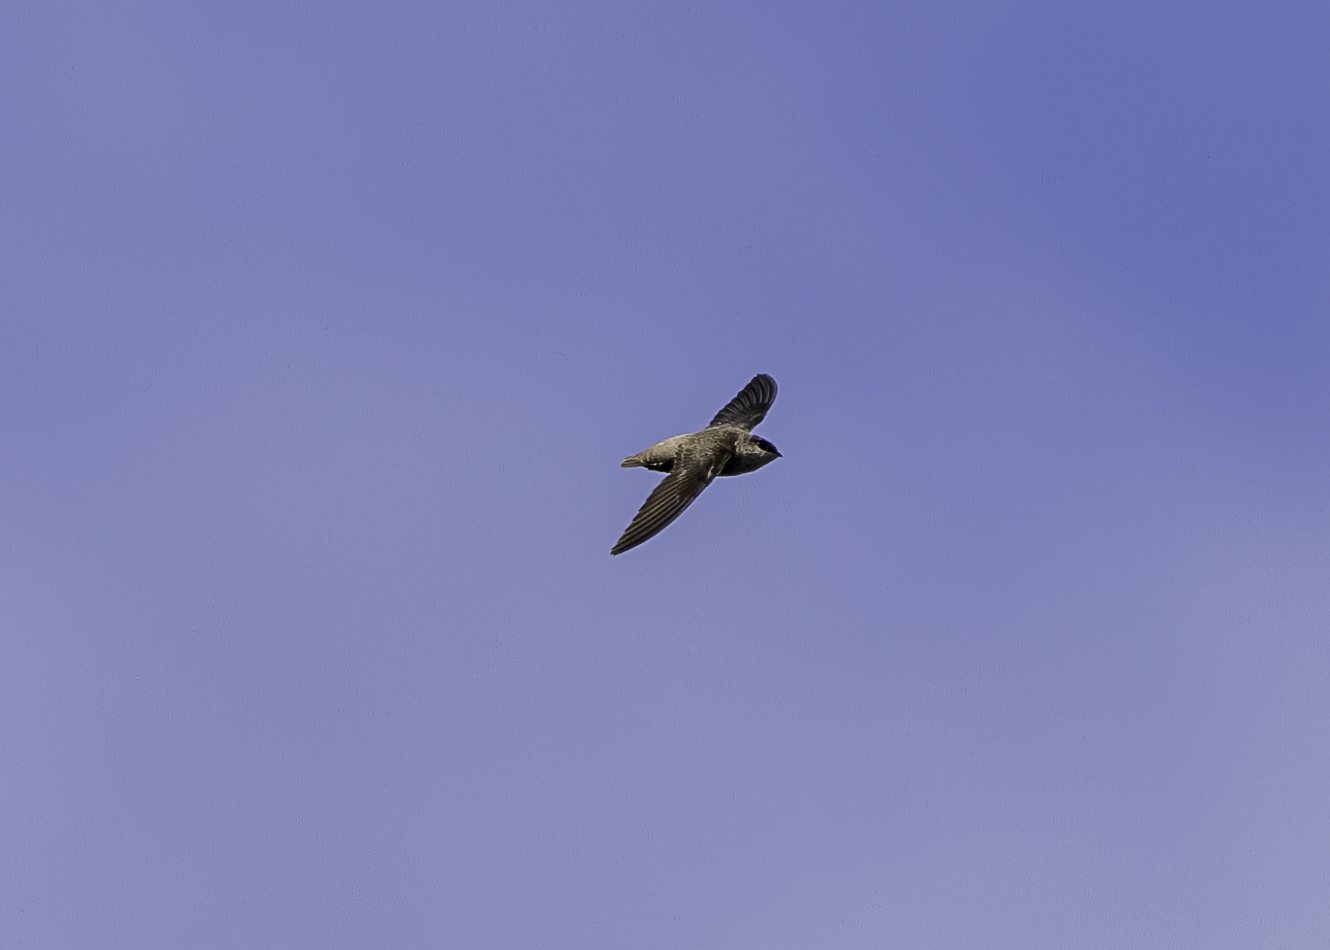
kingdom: Animalia
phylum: Chordata
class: Aves
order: Apodiformes
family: Apodidae
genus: Chaetura
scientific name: Chaetura vauxi
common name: Vaux's swift
